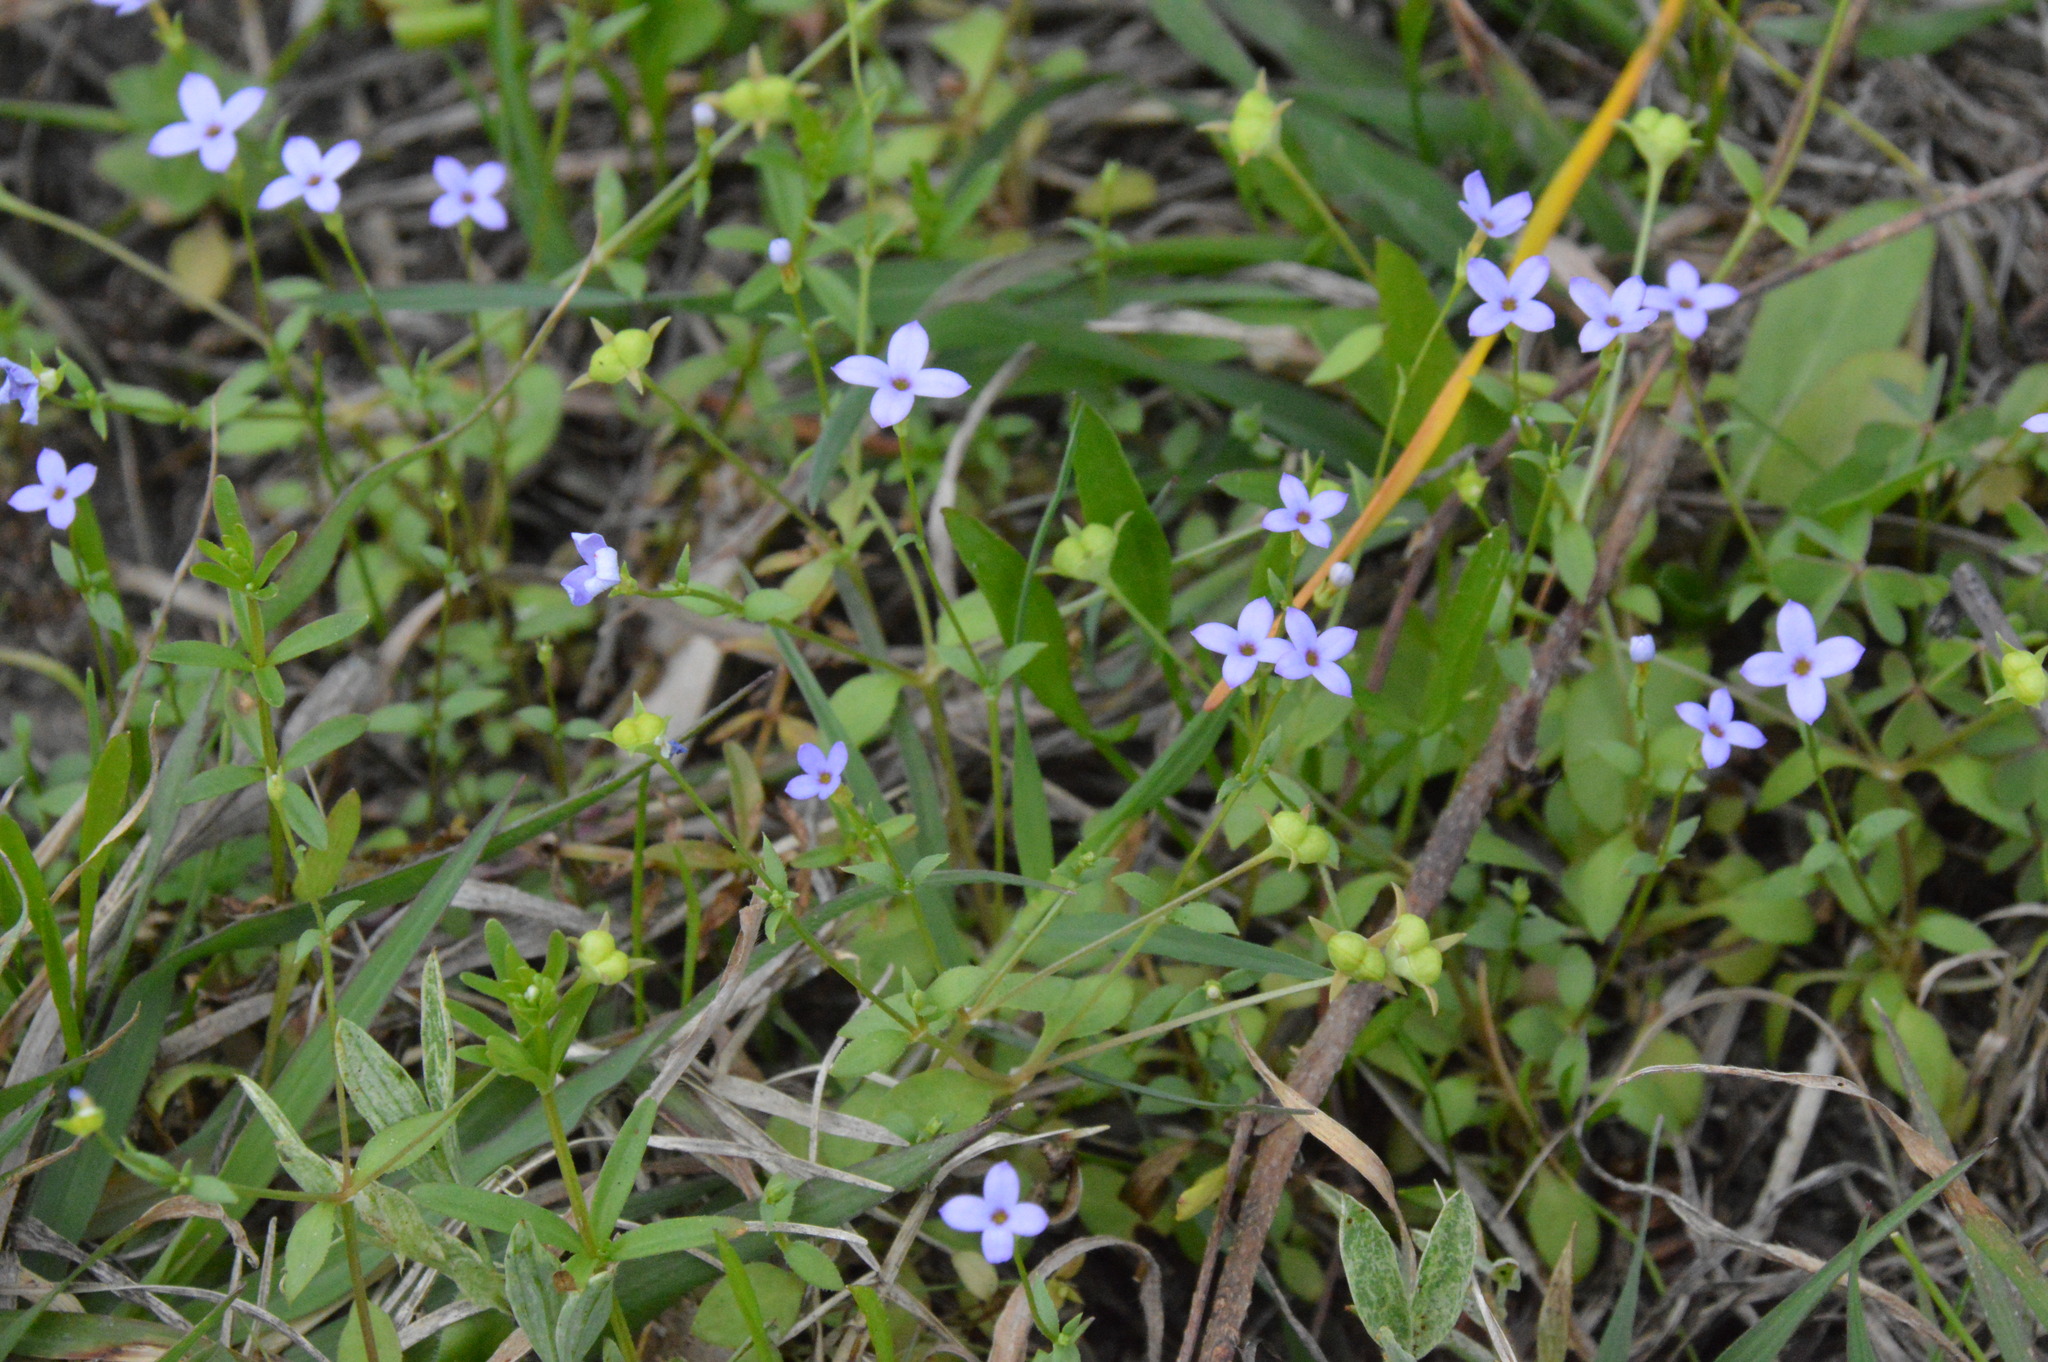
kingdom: Plantae
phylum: Tracheophyta
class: Magnoliopsida
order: Gentianales
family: Rubiaceae
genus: Houstonia
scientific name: Houstonia pusilla
